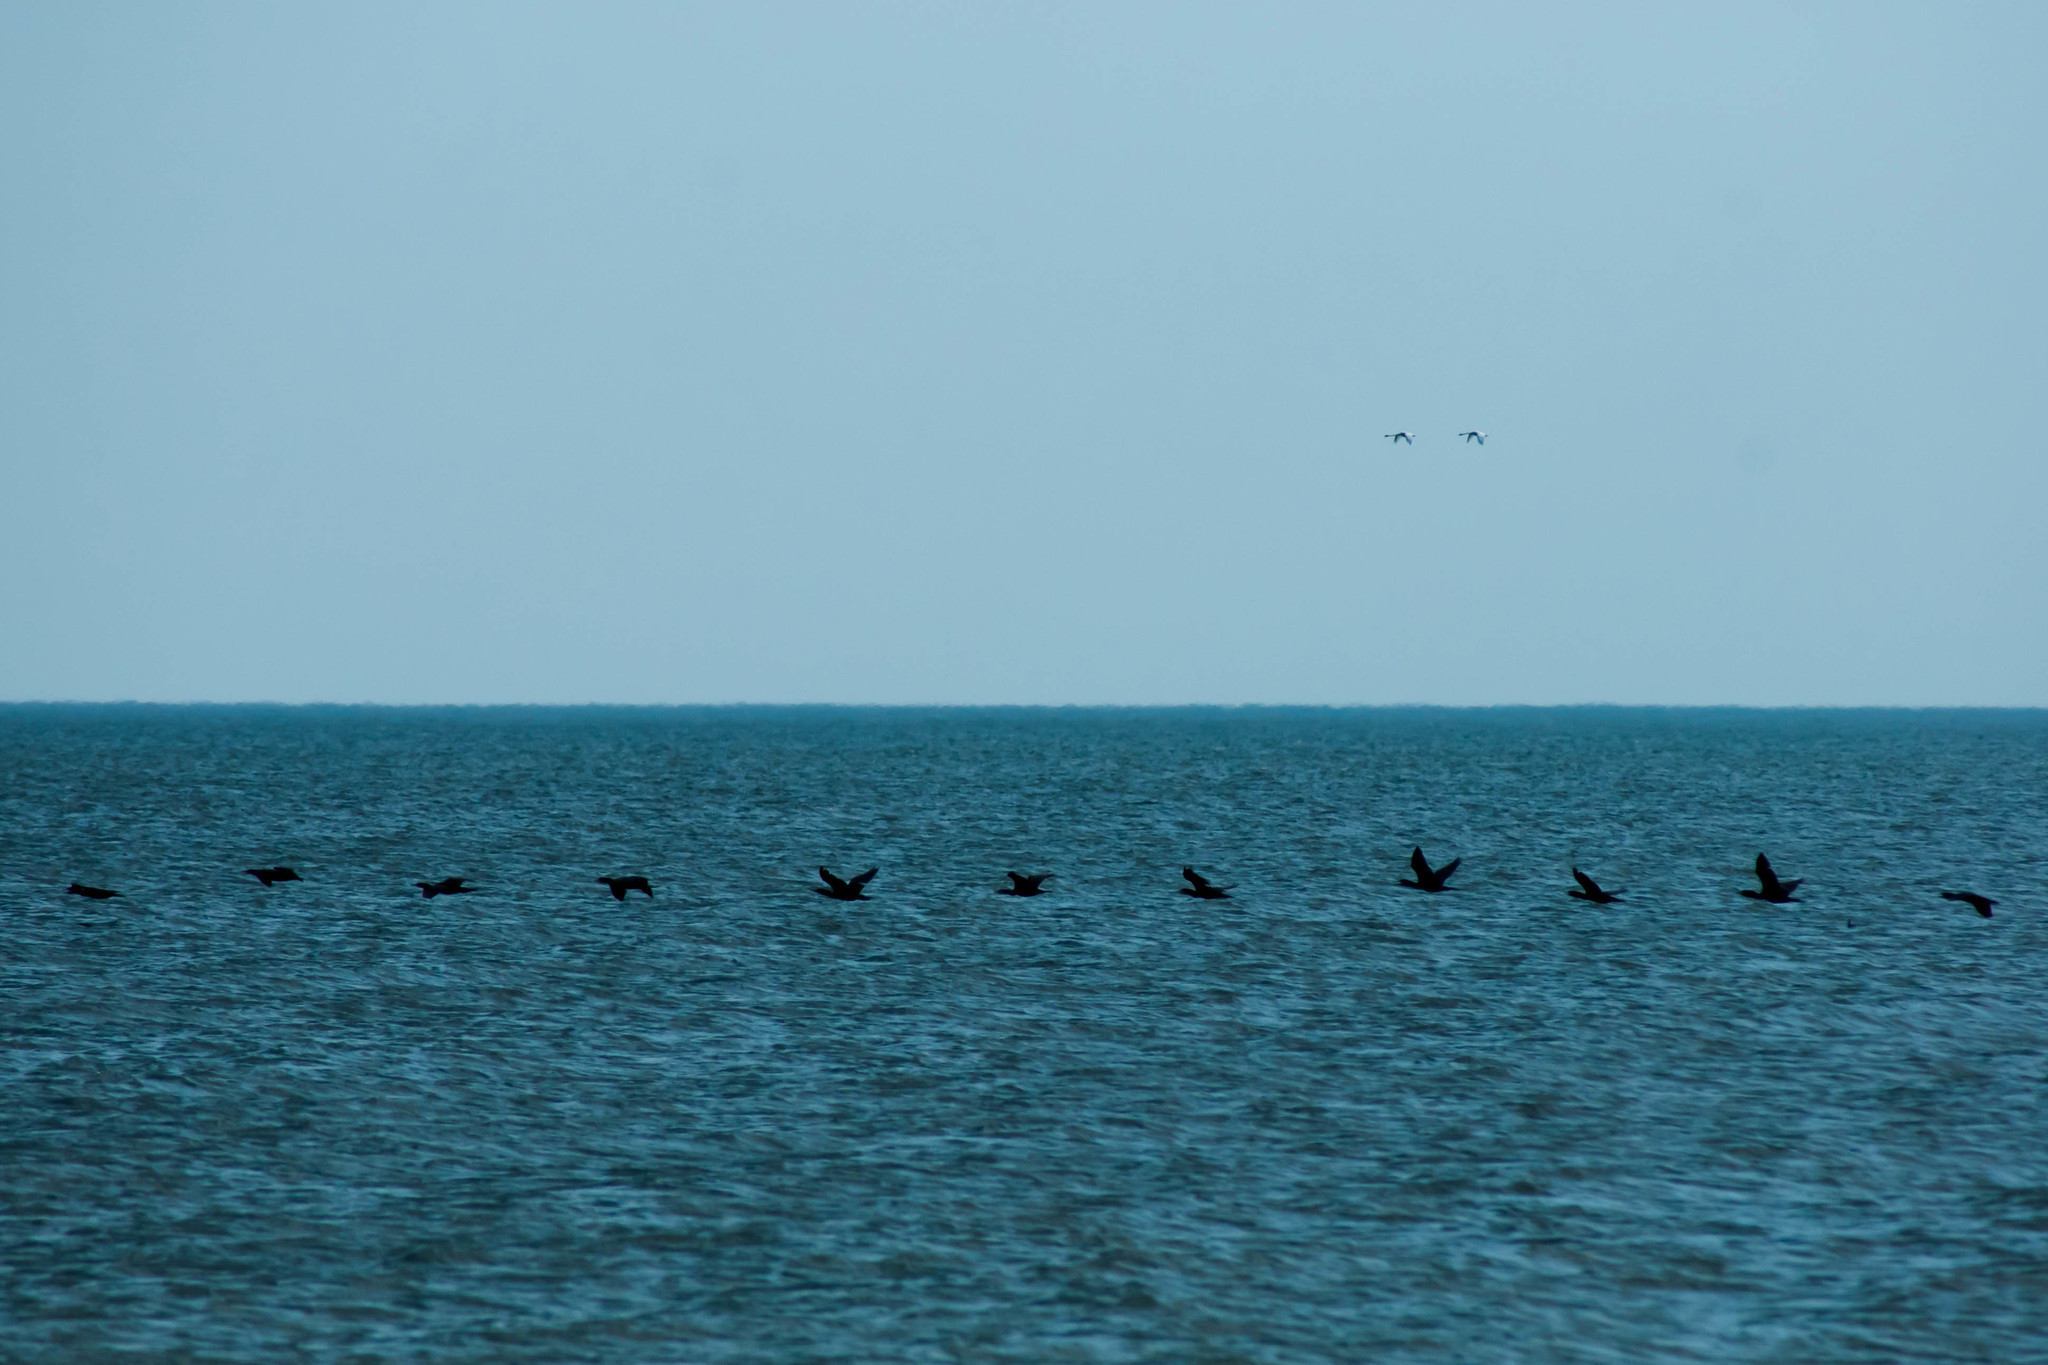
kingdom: Animalia
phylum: Chordata
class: Aves
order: Suliformes
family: Phalacrocoracidae
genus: Phalacrocorax
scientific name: Phalacrocorax carbo
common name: Great cormorant
